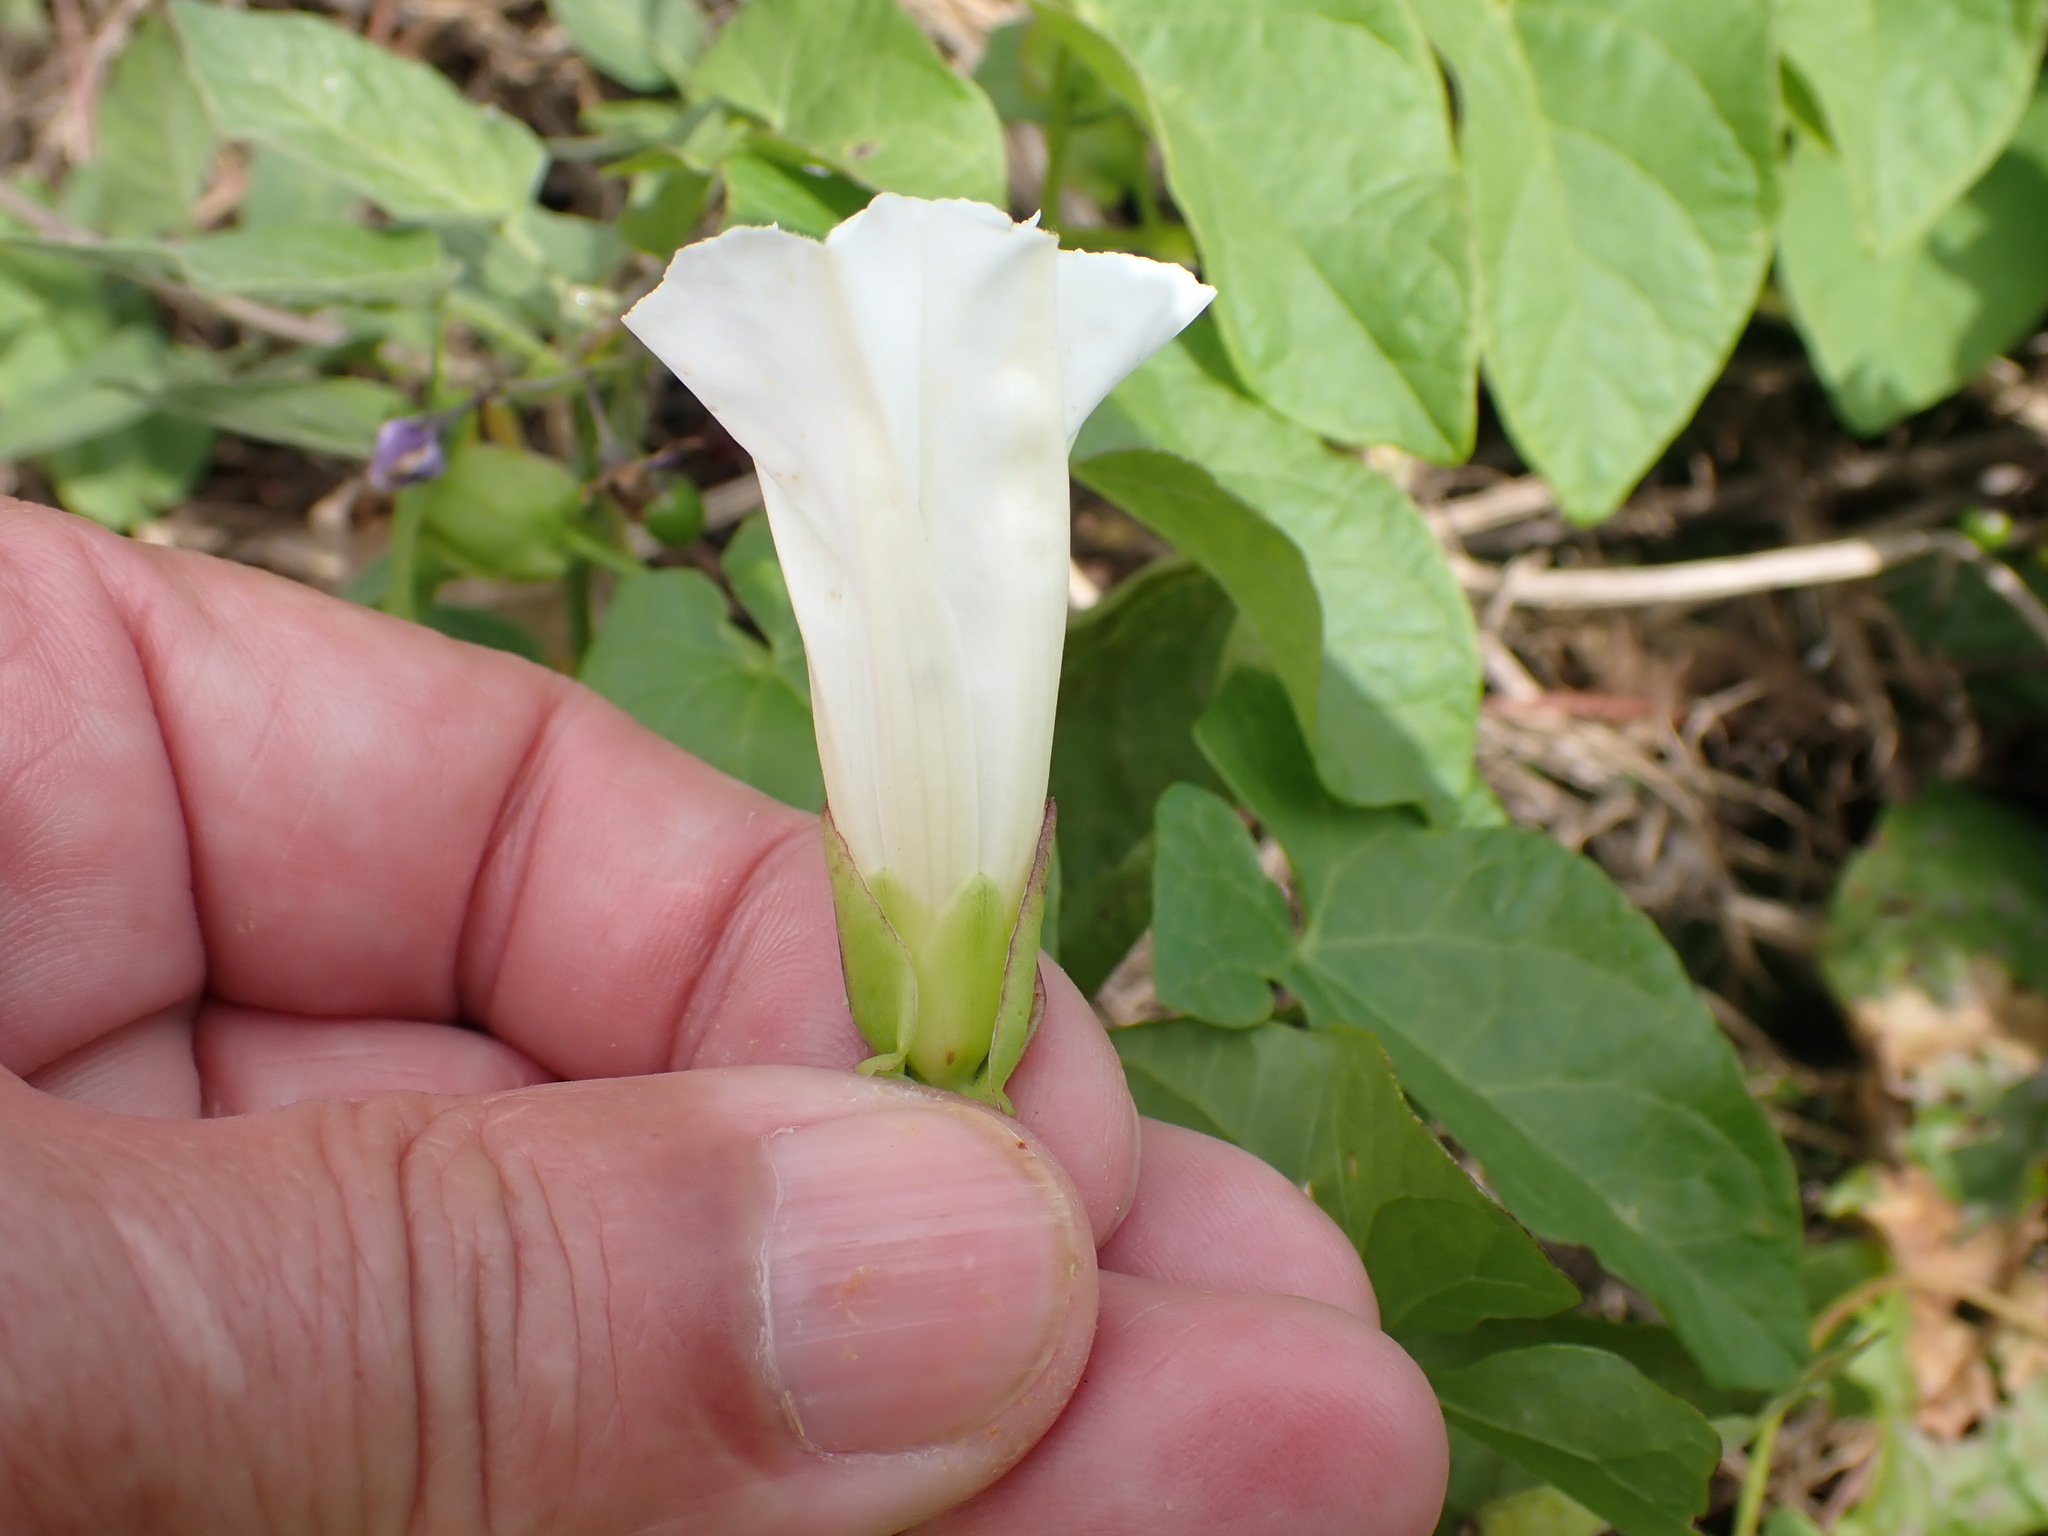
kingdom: Plantae
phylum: Tracheophyta
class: Magnoliopsida
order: Solanales
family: Convolvulaceae
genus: Calystegia
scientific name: Calystegia sepium
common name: Hedge bindweed
